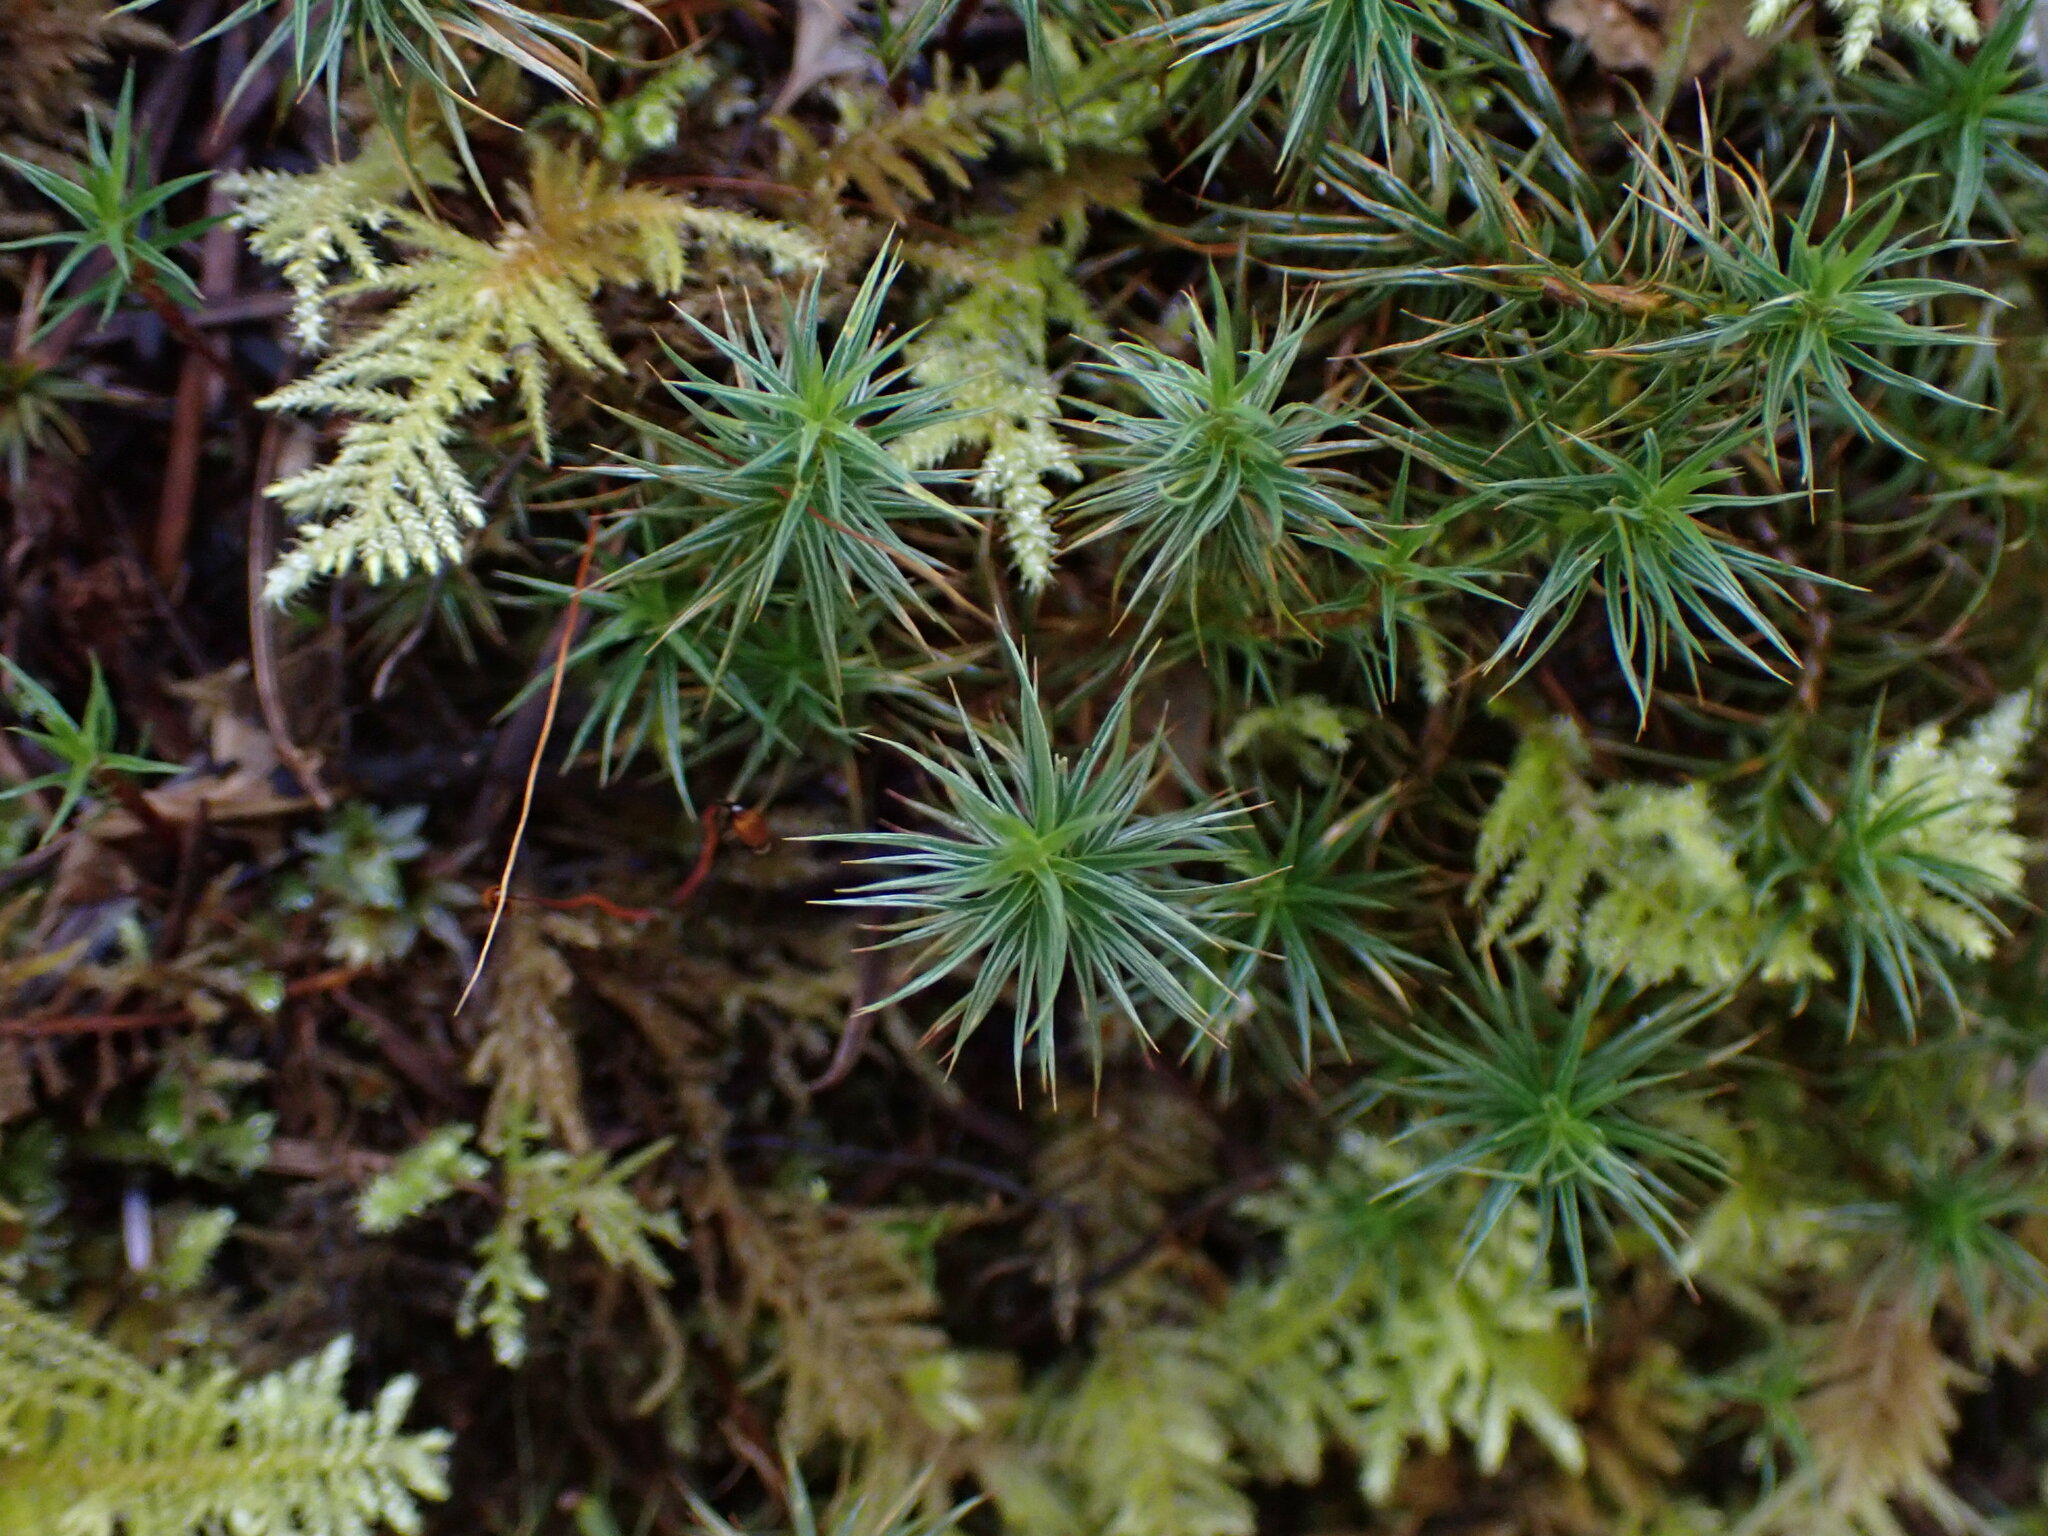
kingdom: Plantae
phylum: Bryophyta
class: Polytrichopsida
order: Polytrichales
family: Polytrichaceae
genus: Polytrichum
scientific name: Polytrichum juniperinum
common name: Juniper haircap moss
